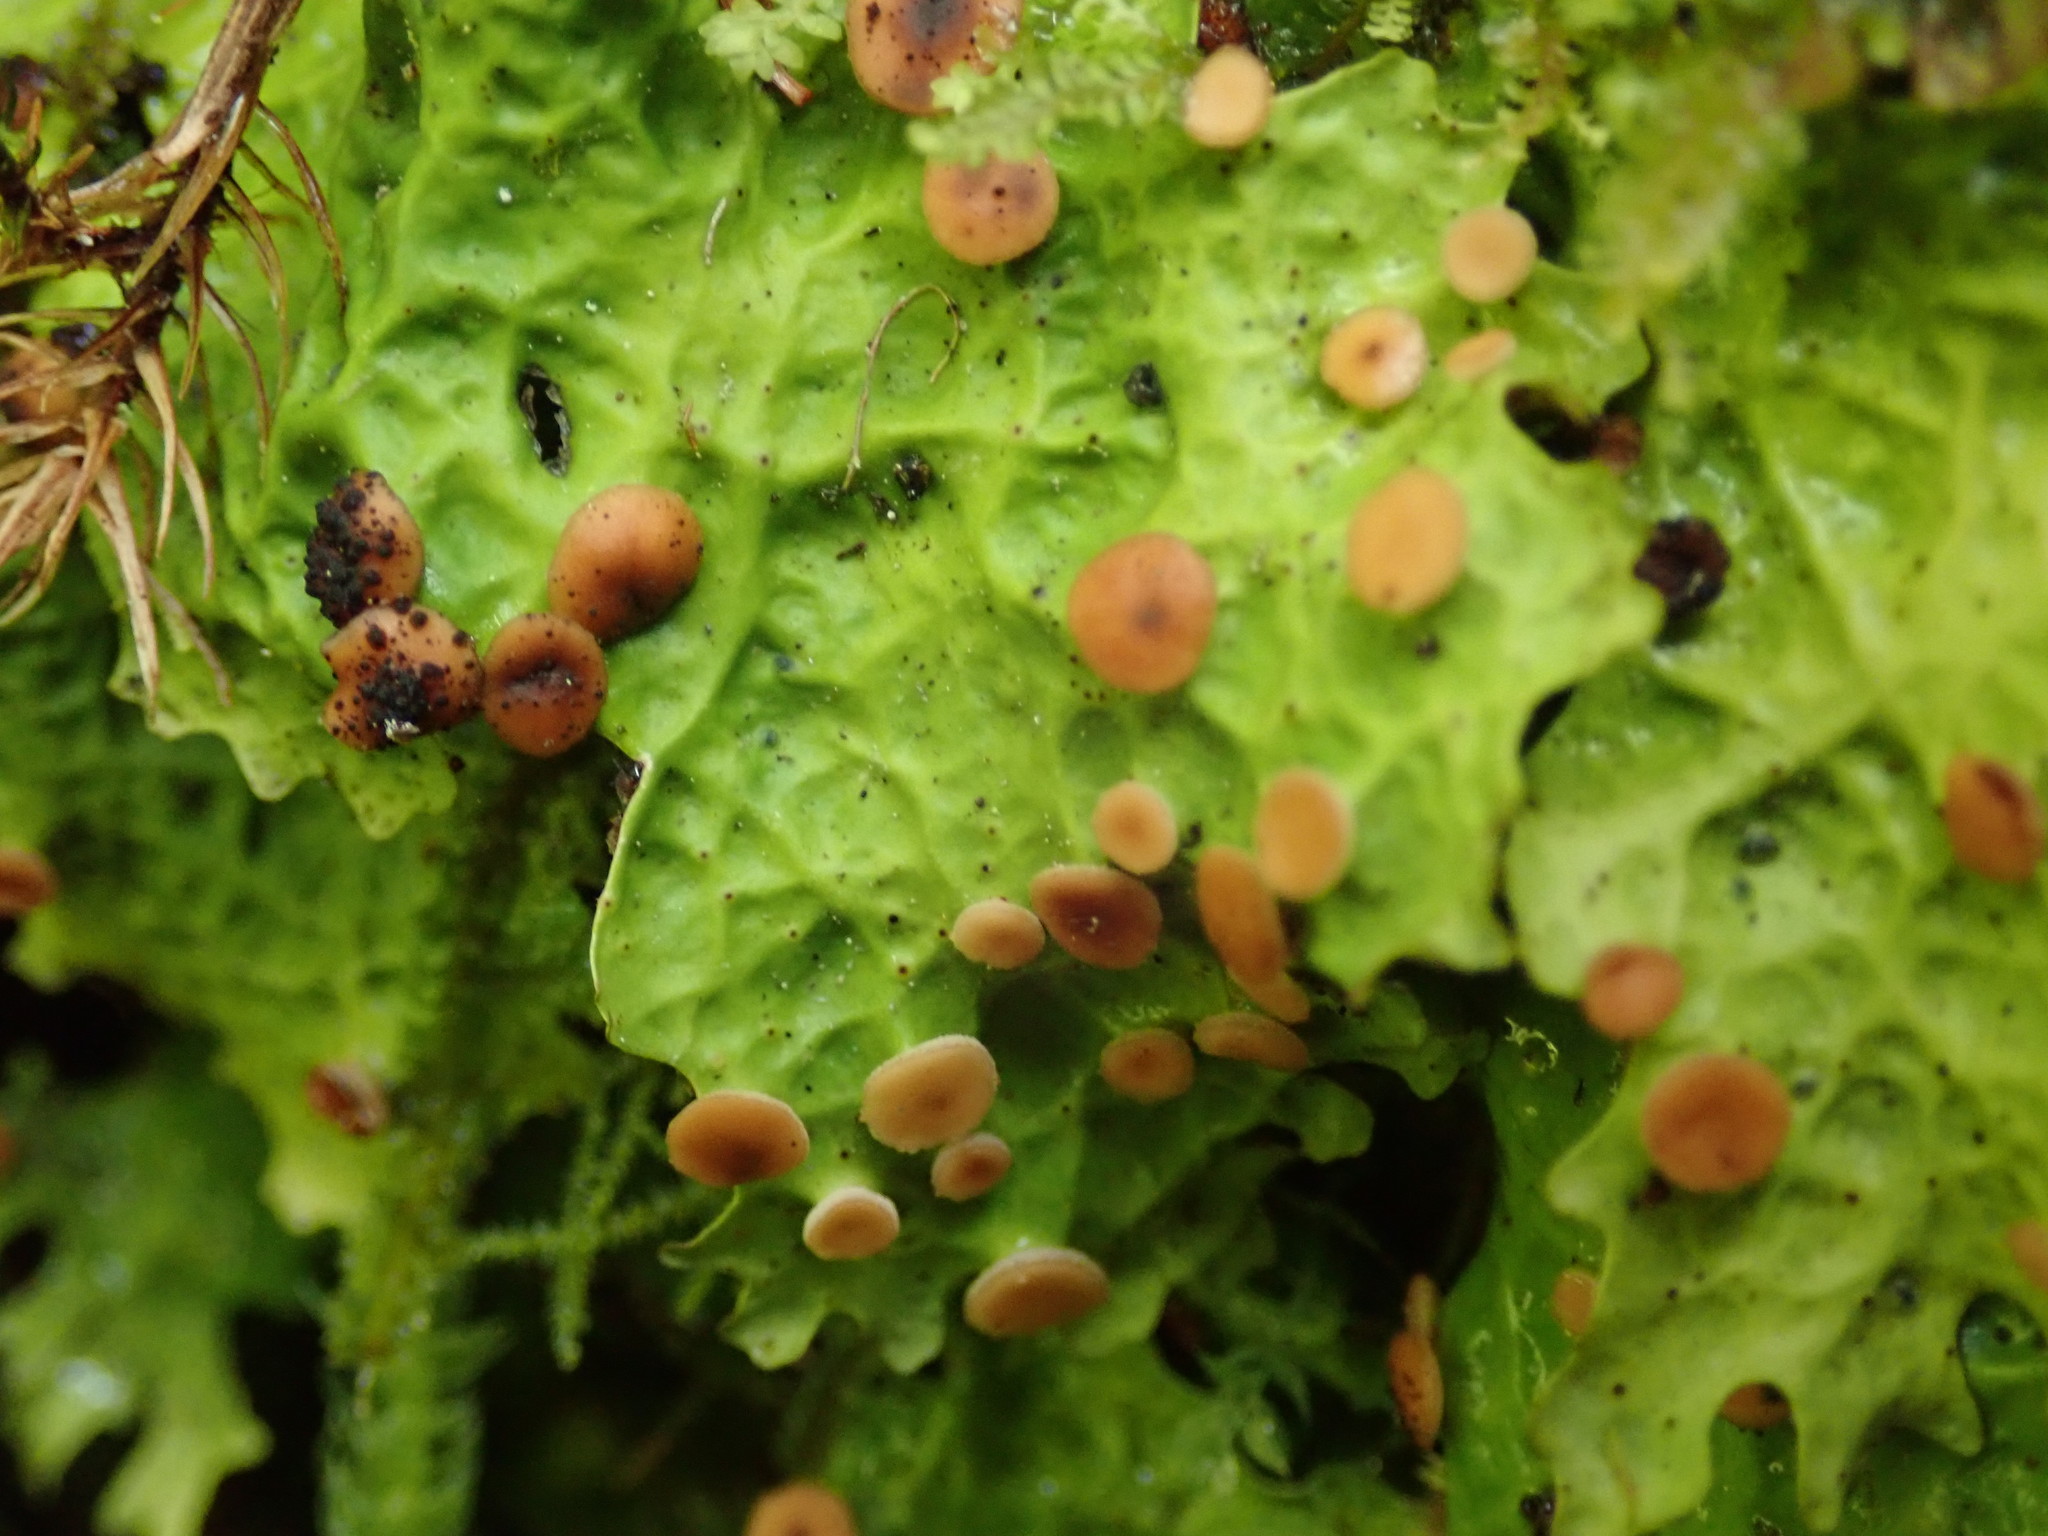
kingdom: Fungi
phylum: Ascomycota
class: Lecanoromycetes
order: Peltigerales
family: Lobariaceae
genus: Lobaria
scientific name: Lobaria linita
